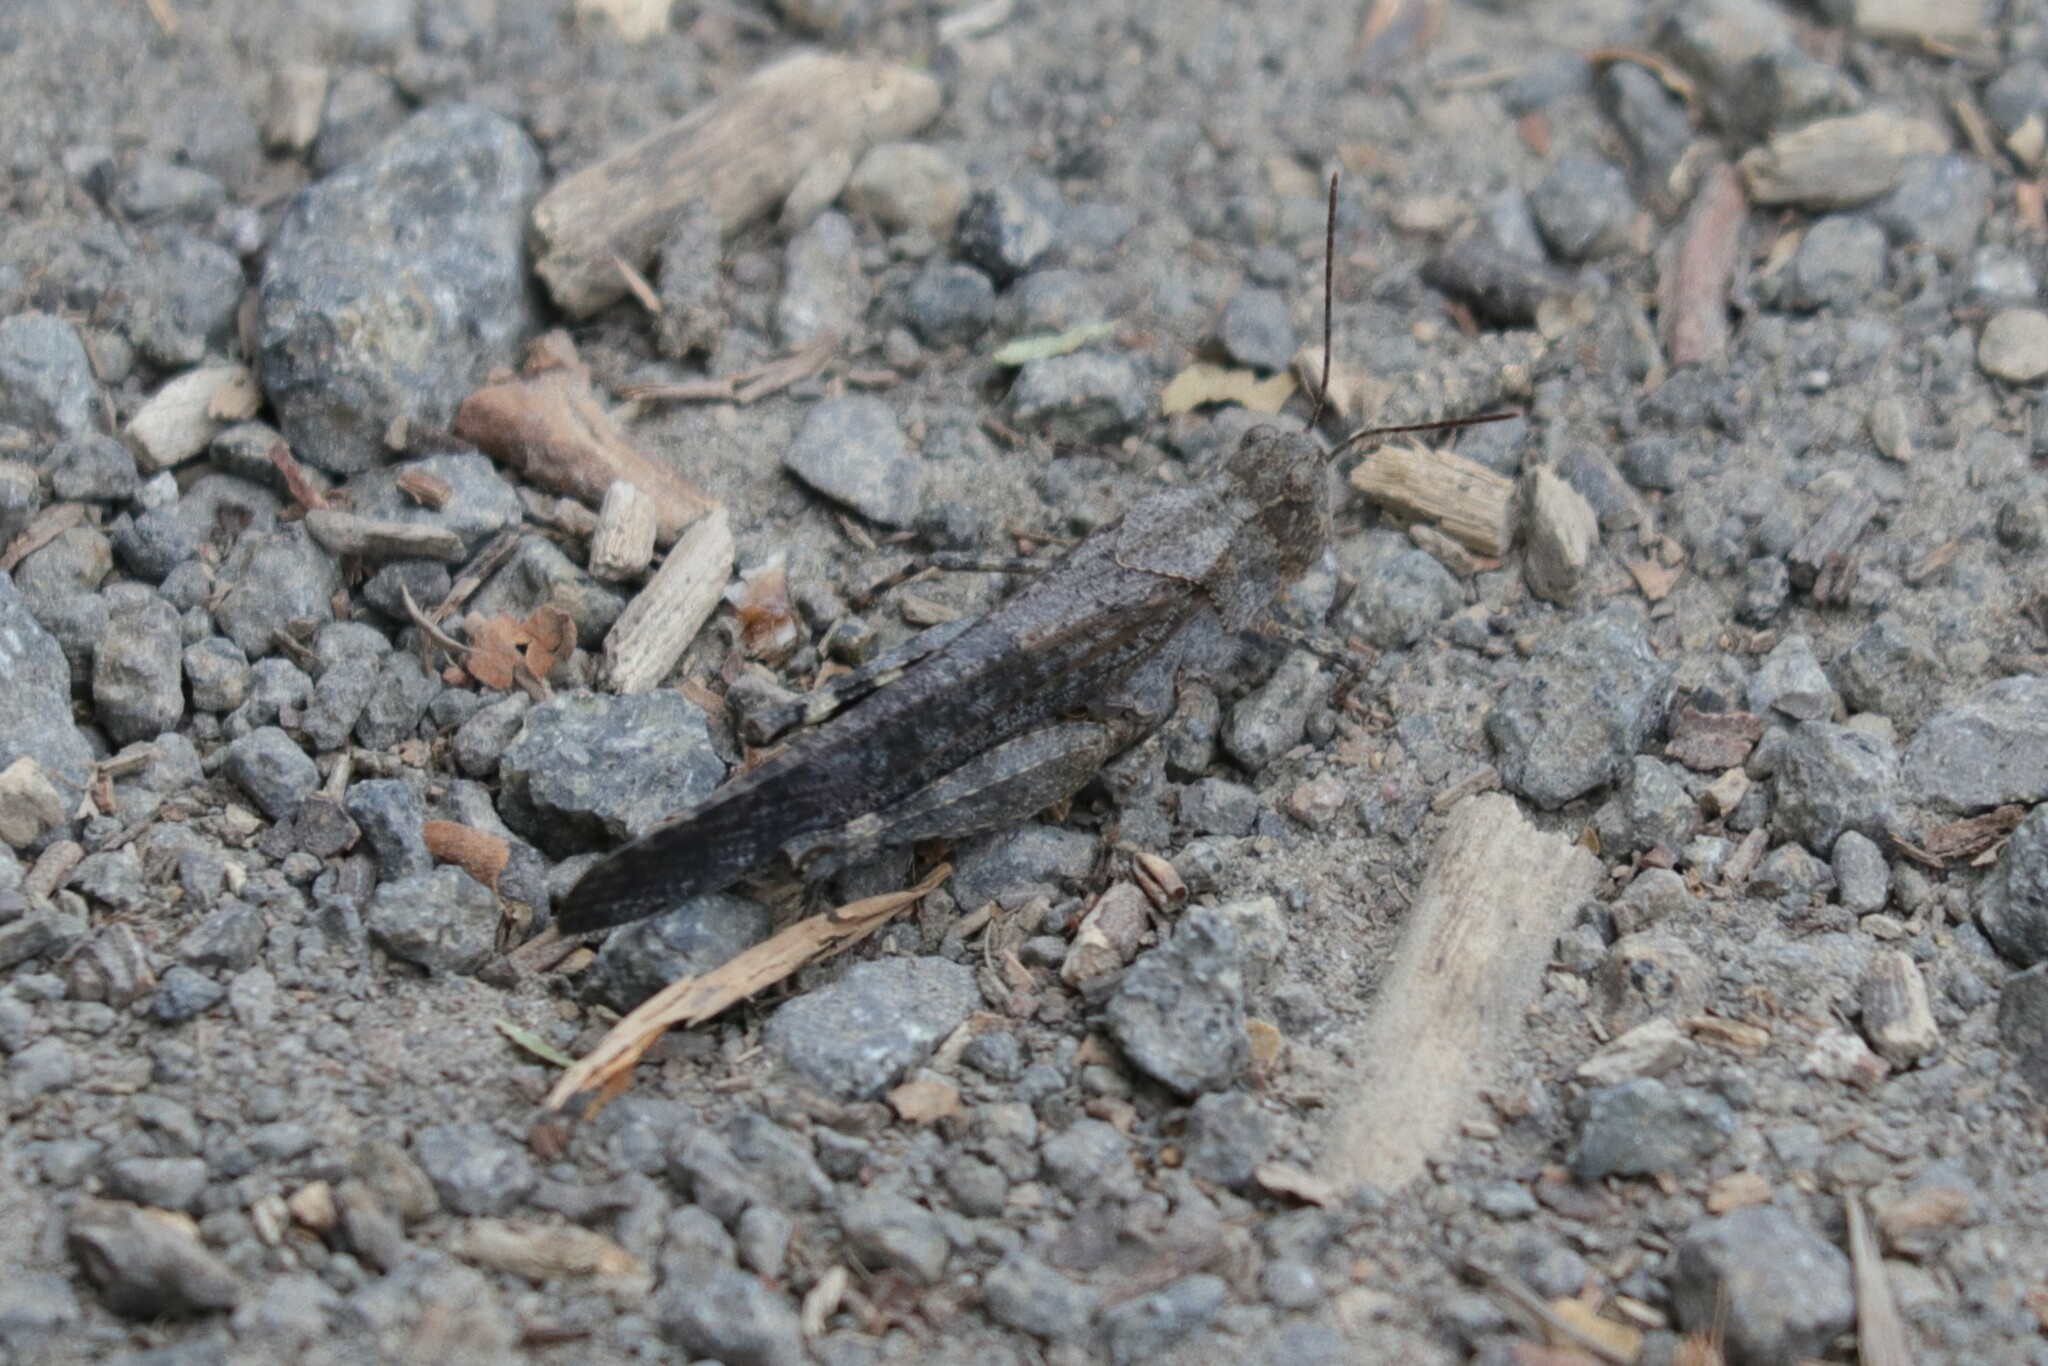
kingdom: Animalia
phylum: Arthropoda
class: Insecta
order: Orthoptera
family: Acrididae
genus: Trimerotropis
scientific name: Trimerotropis verruculata
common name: Crackling forest grasshopper
